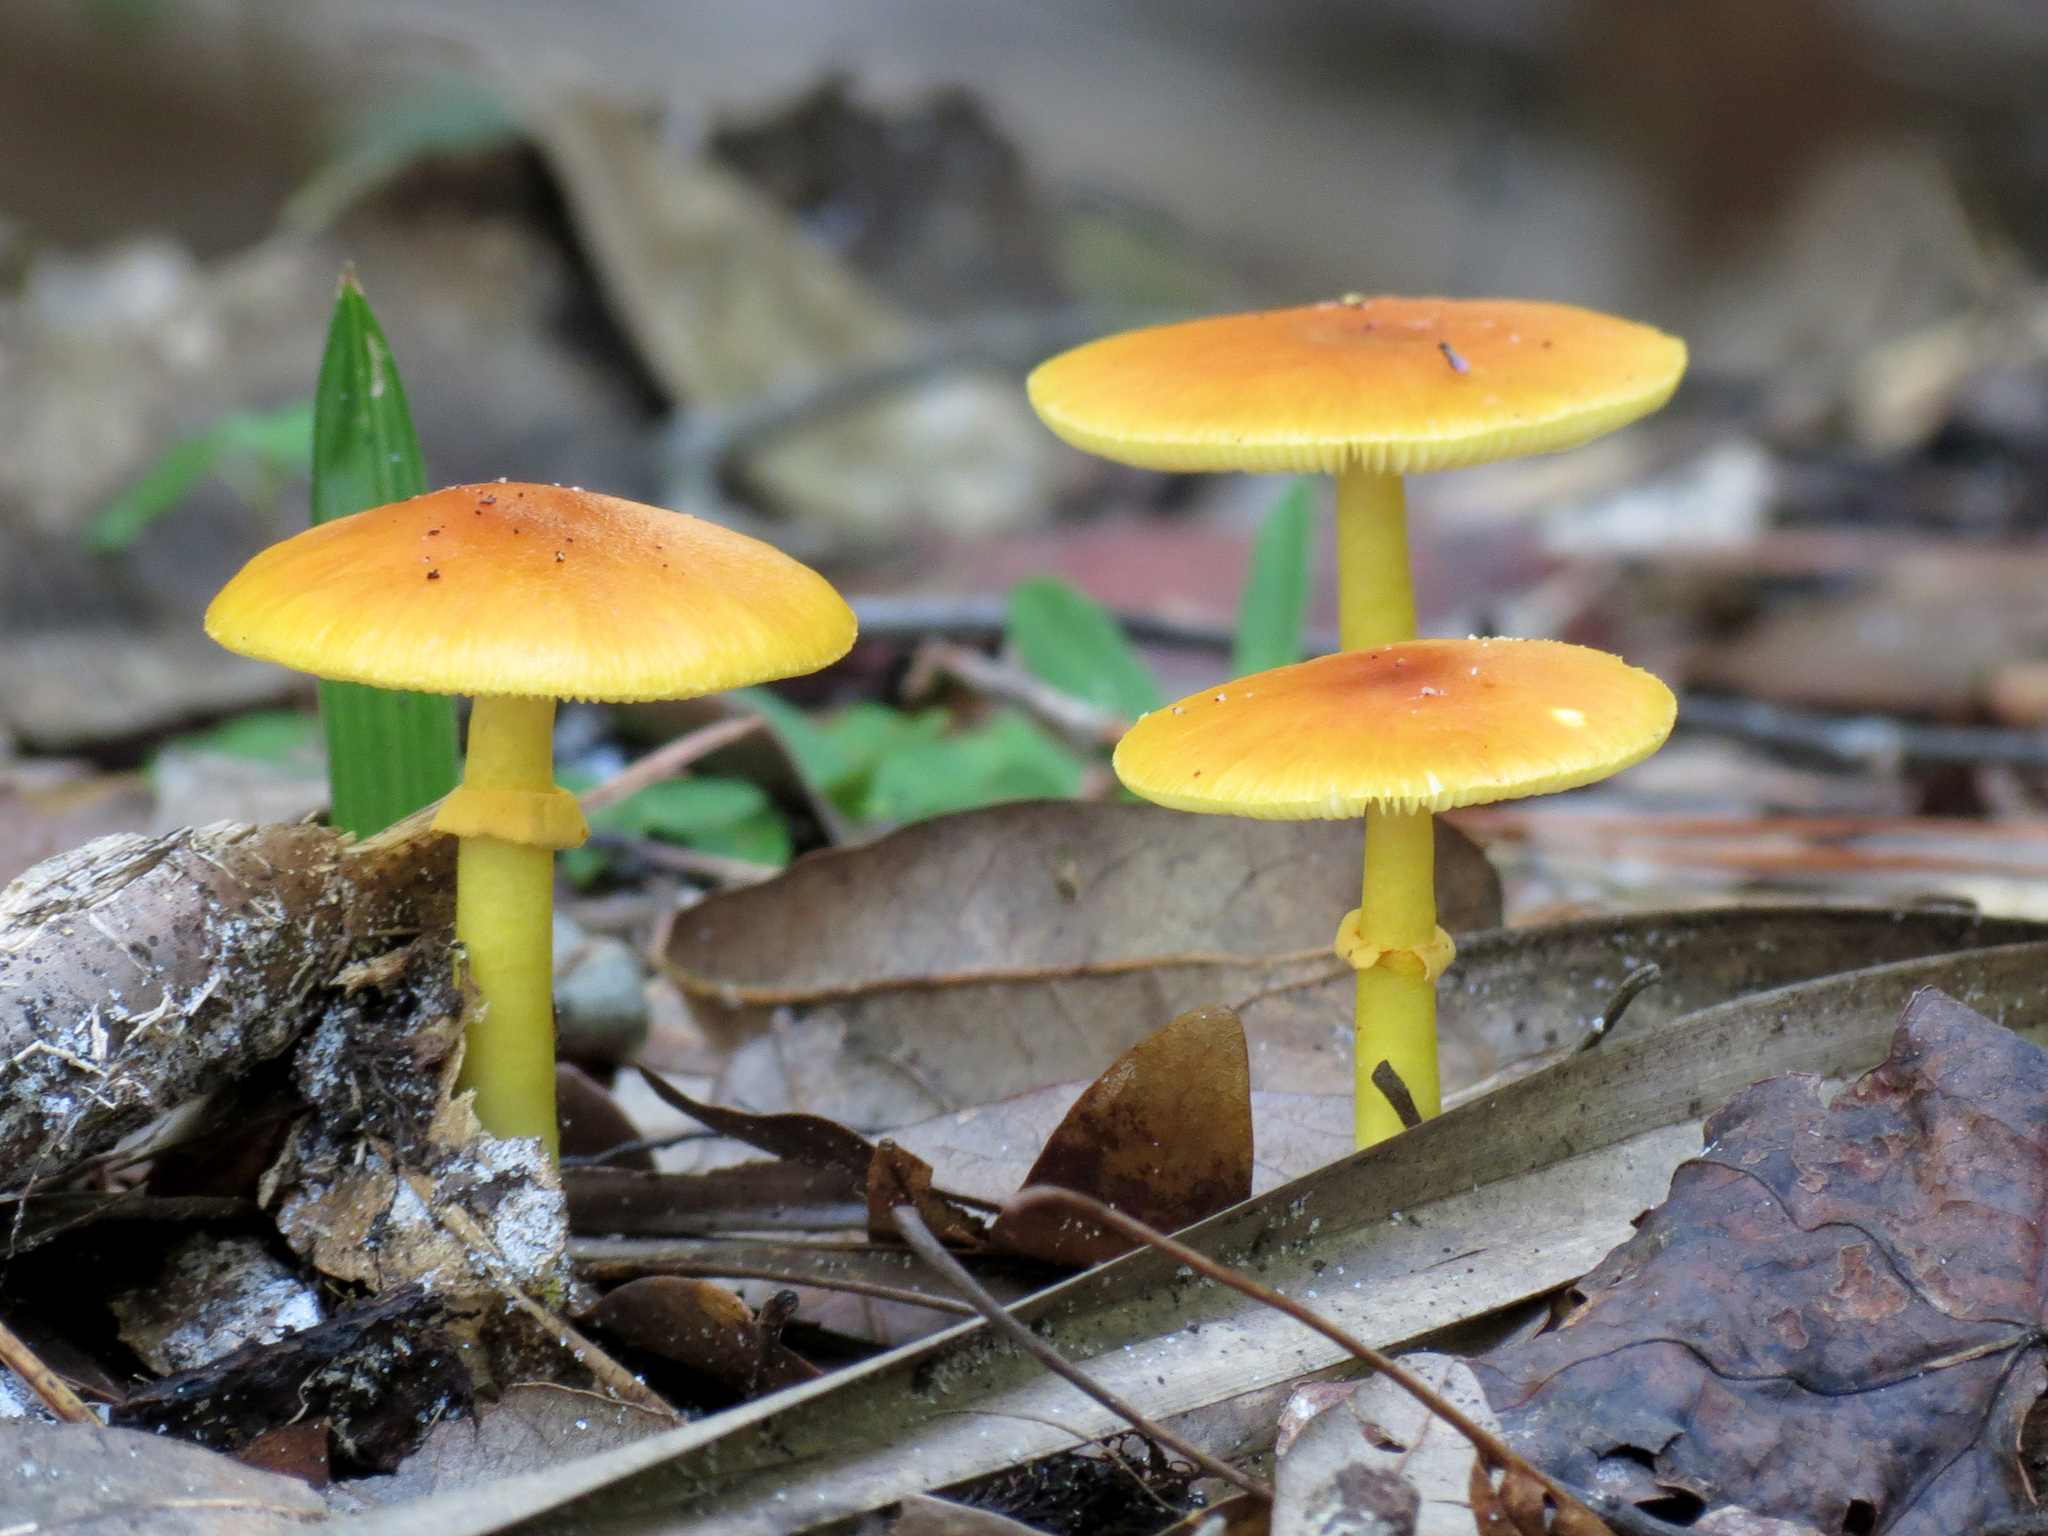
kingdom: Fungi
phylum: Basidiomycota
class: Agaricomycetes
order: Agaricales
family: Amanitaceae
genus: Amanita
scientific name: Amanita flavoconia
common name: Yellow patches
